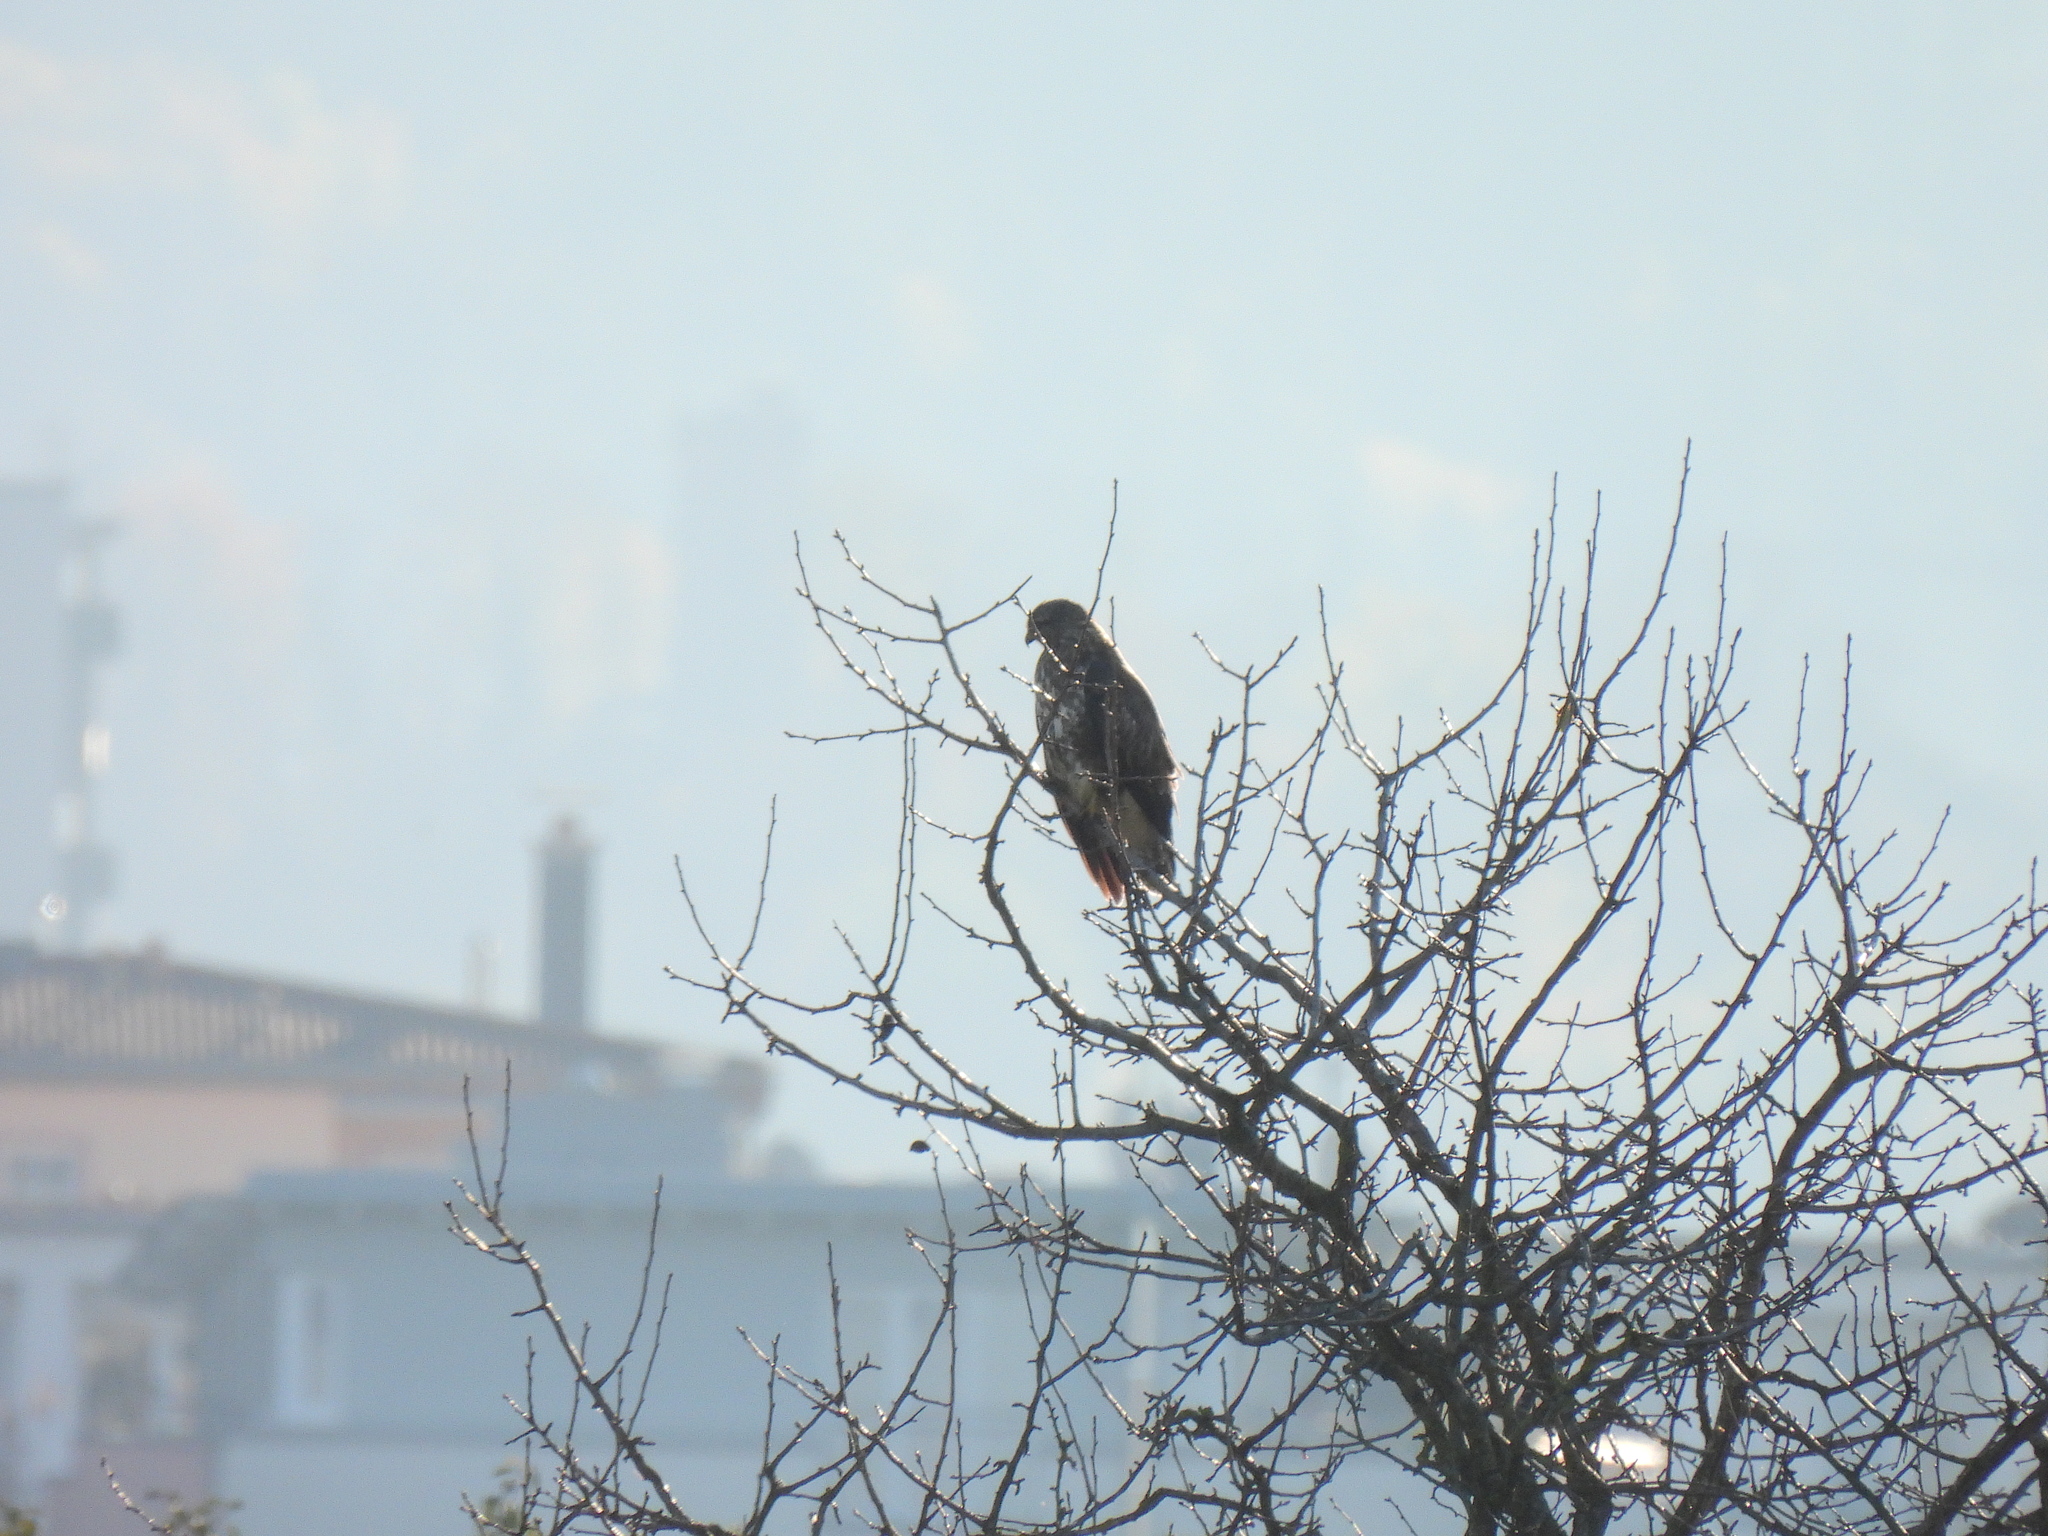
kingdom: Animalia
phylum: Chordata
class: Aves
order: Accipitriformes
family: Accipitridae
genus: Buteo
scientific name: Buteo buteo
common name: Common buzzard
